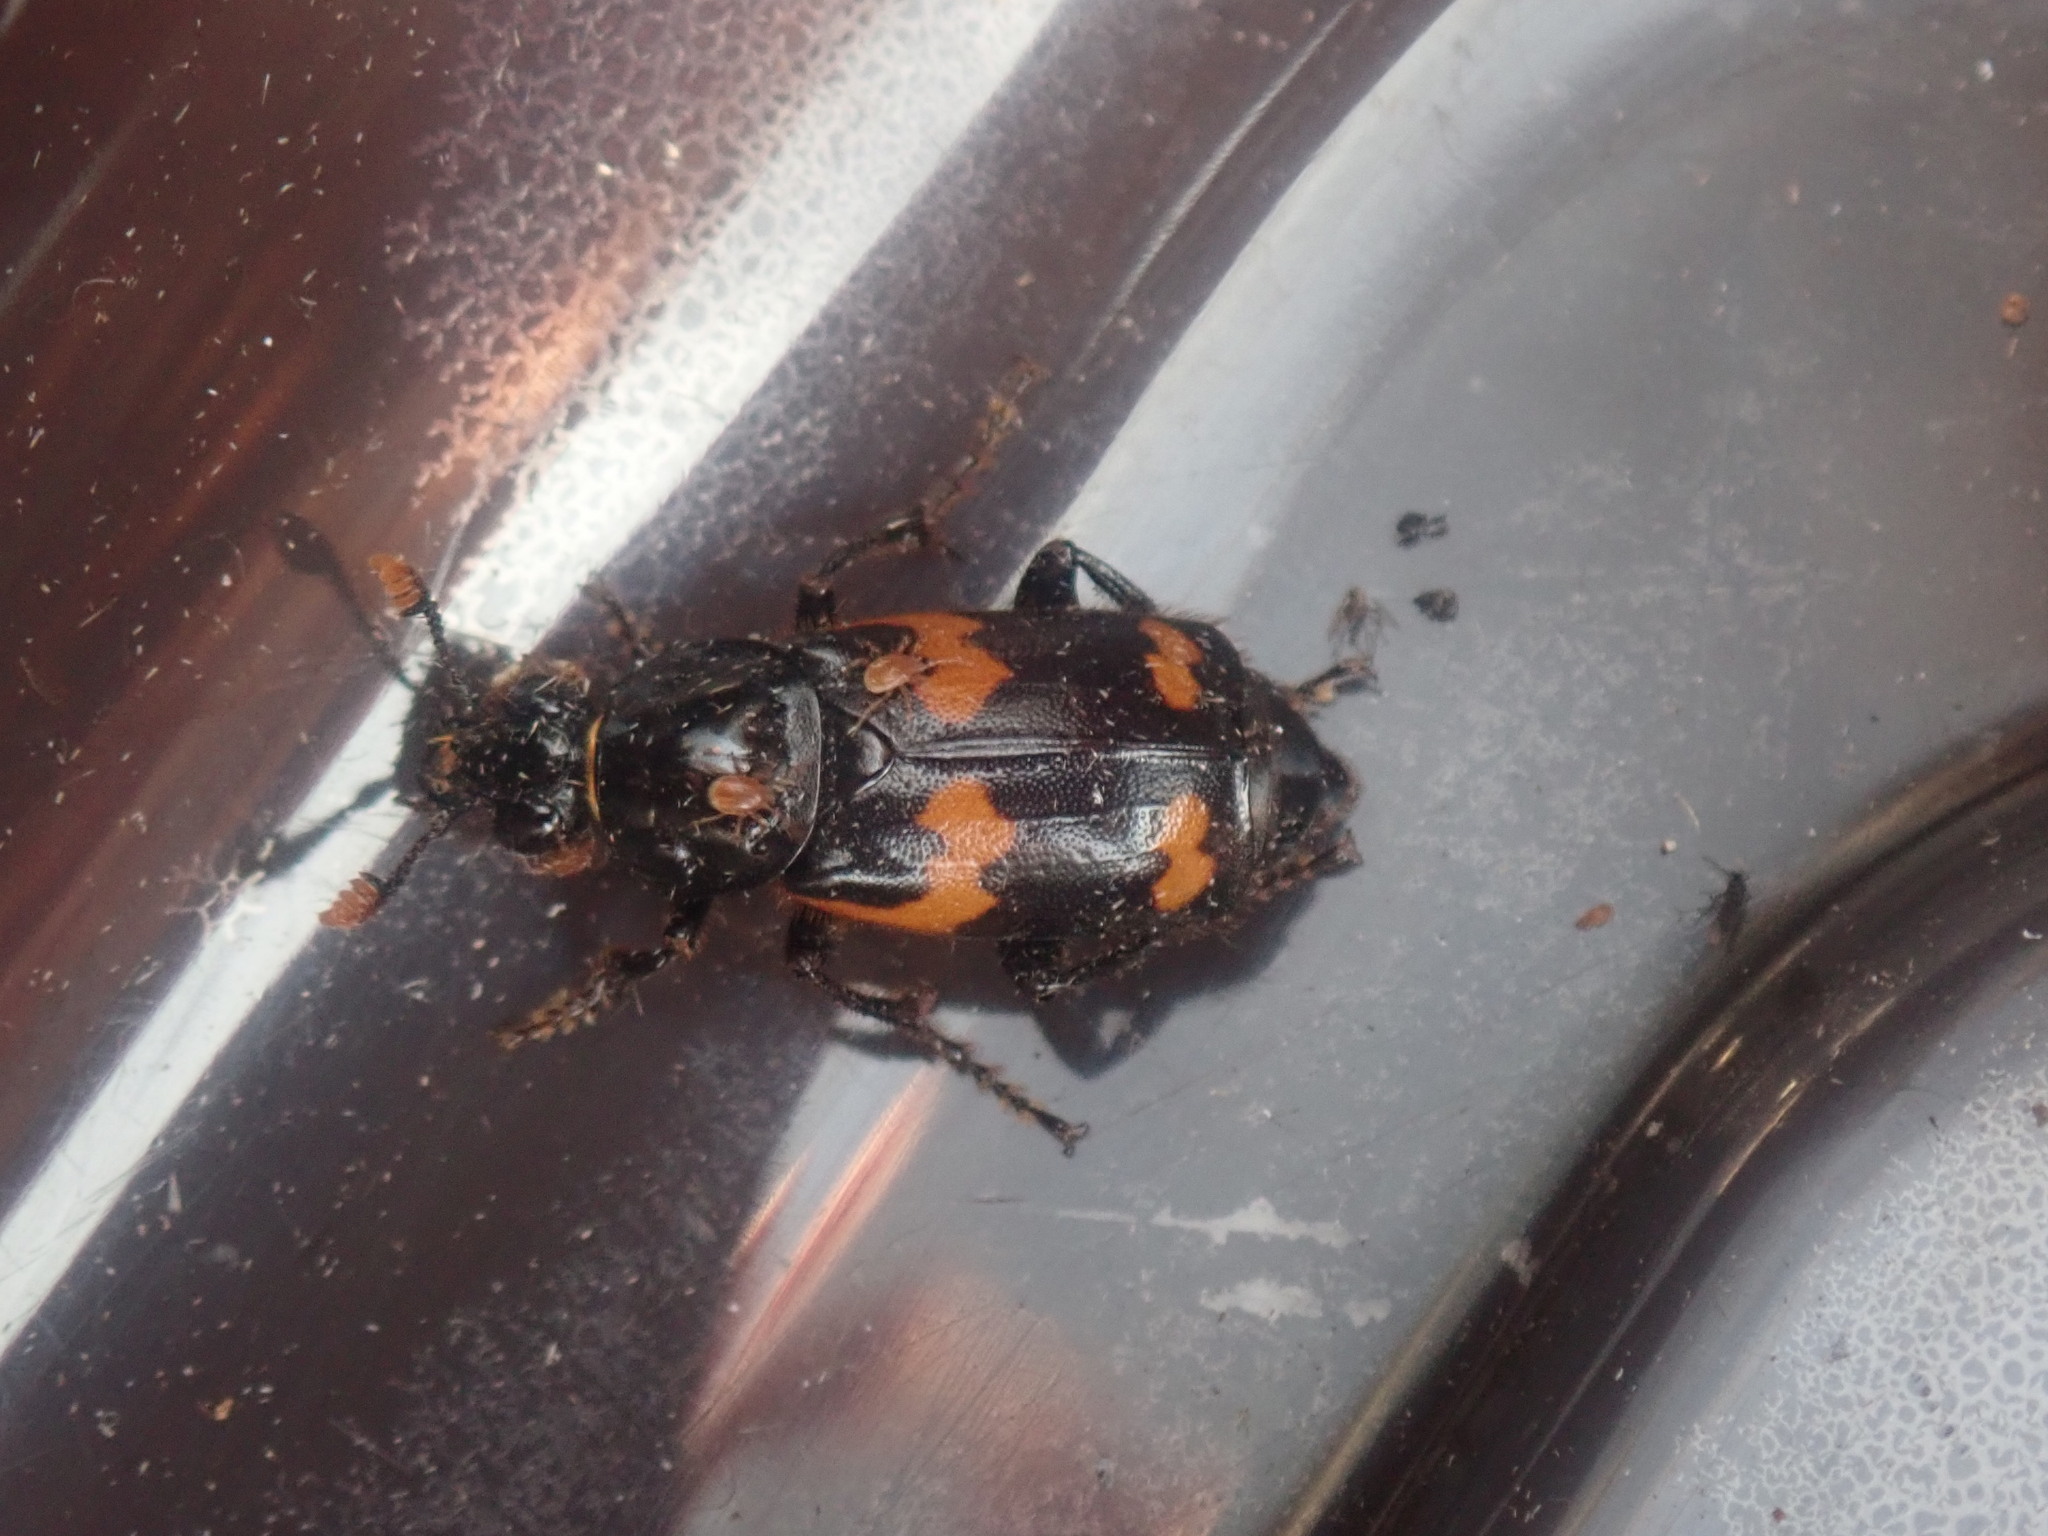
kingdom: Animalia
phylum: Arthropoda
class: Insecta
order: Coleoptera
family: Staphylinidae
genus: Nicrophorus
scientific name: Nicrophorus sayi
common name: Say's burying beetle
